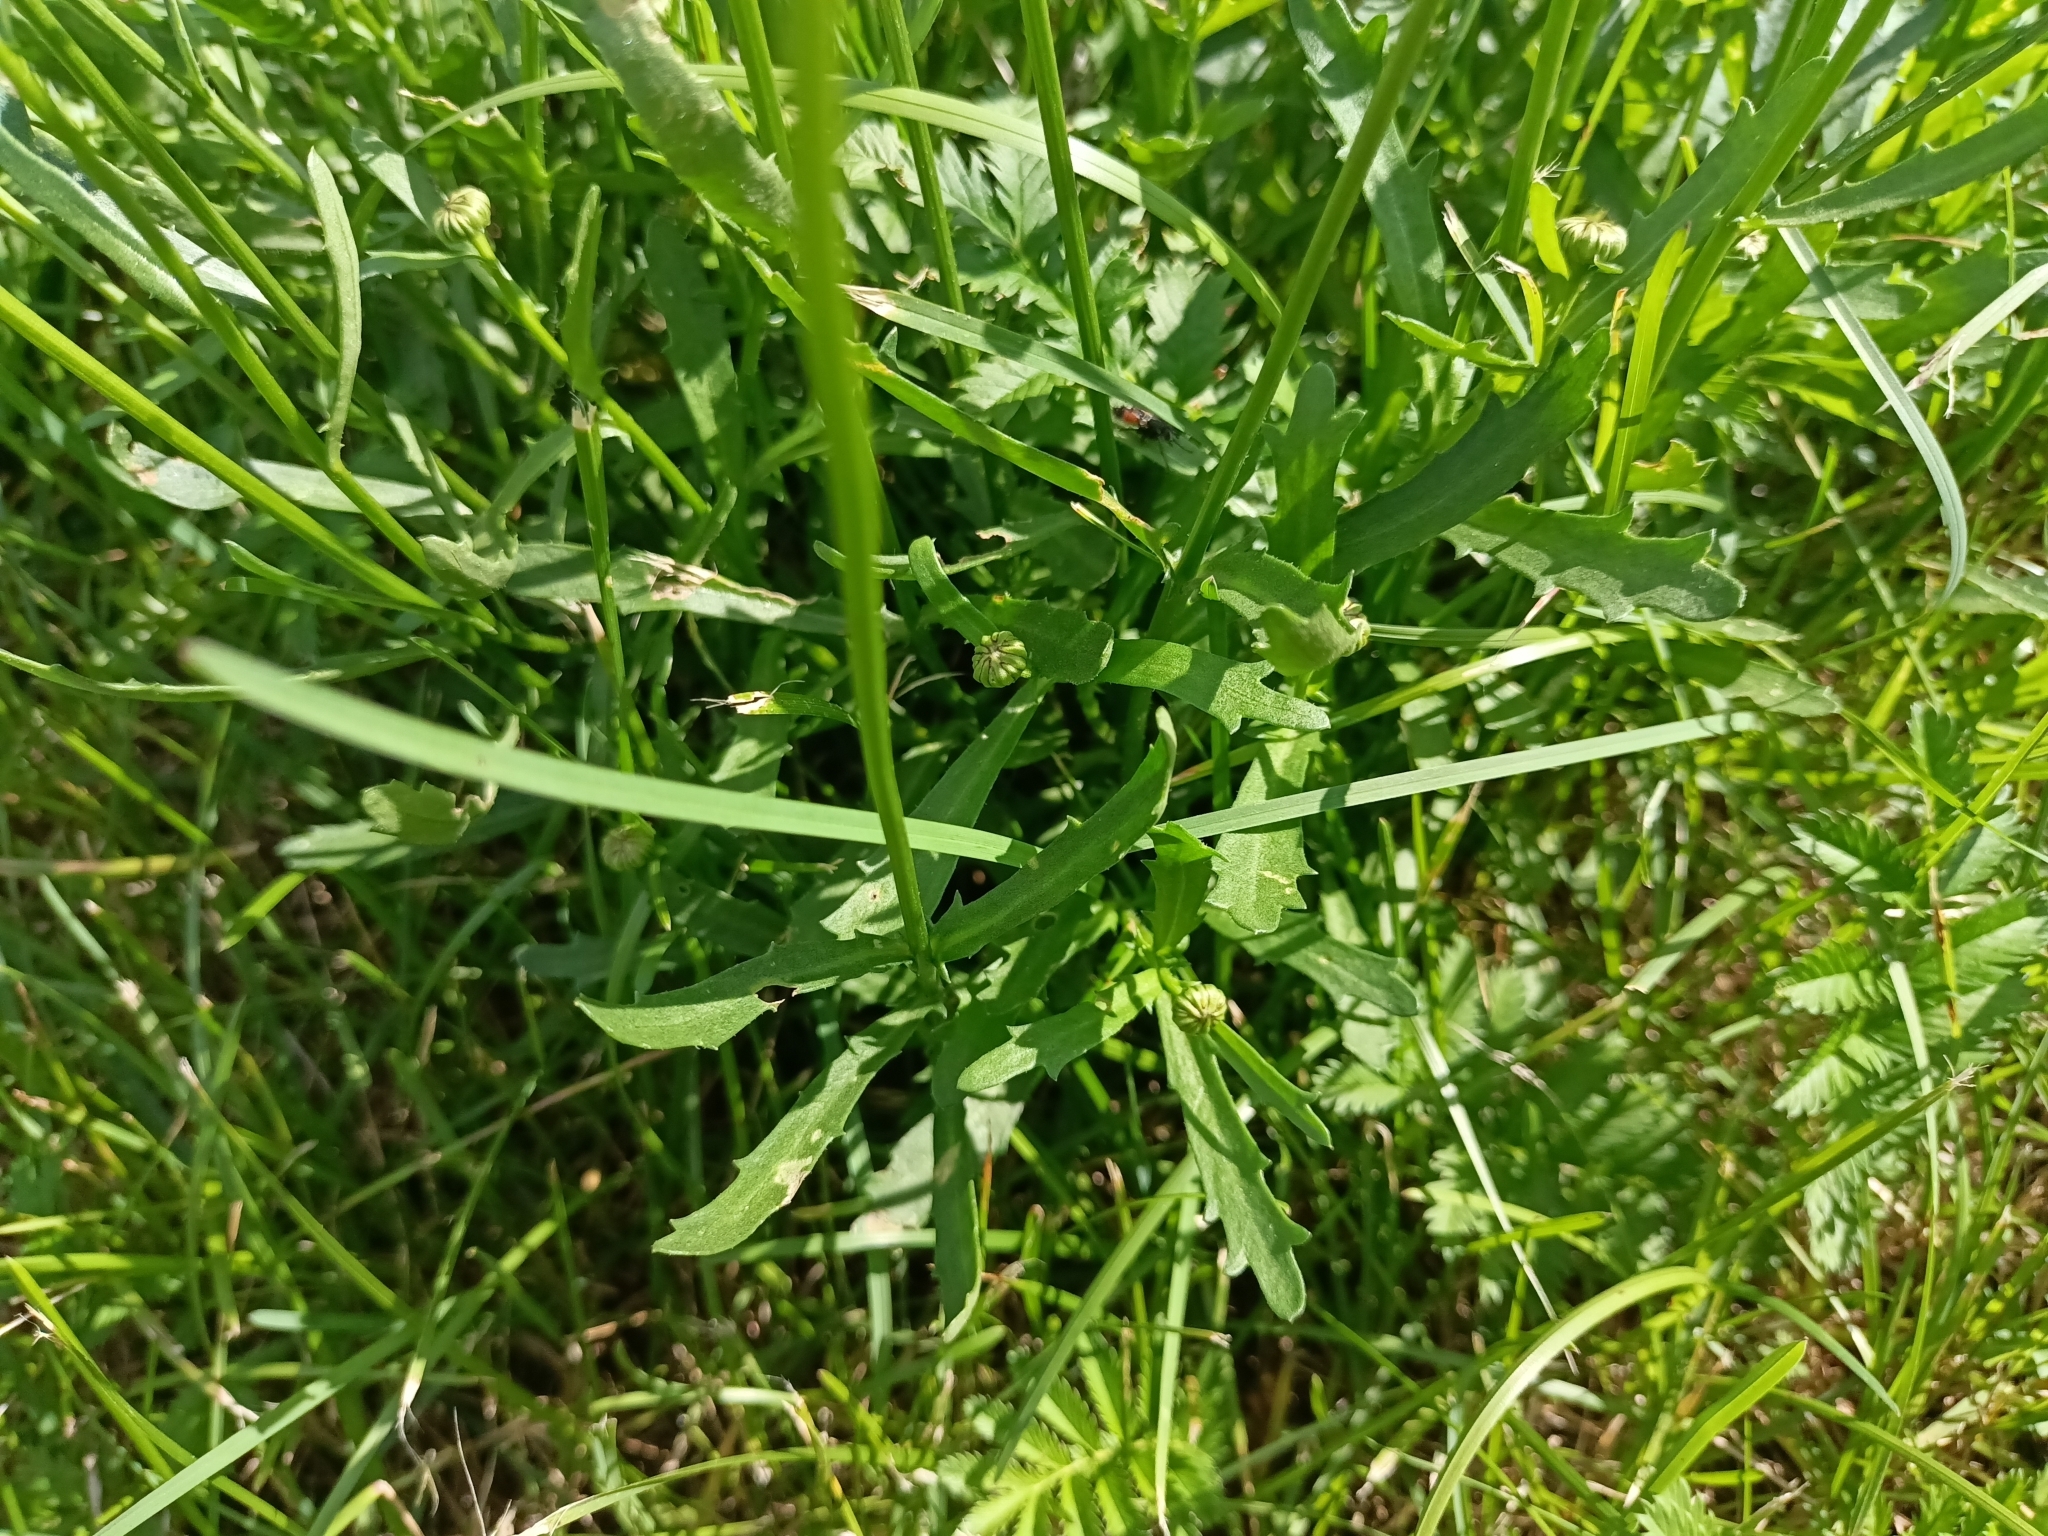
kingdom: Plantae
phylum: Tracheophyta
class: Magnoliopsida
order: Asterales
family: Asteraceae
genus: Leucanthemum
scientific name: Leucanthemum vulgare
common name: Oxeye daisy
